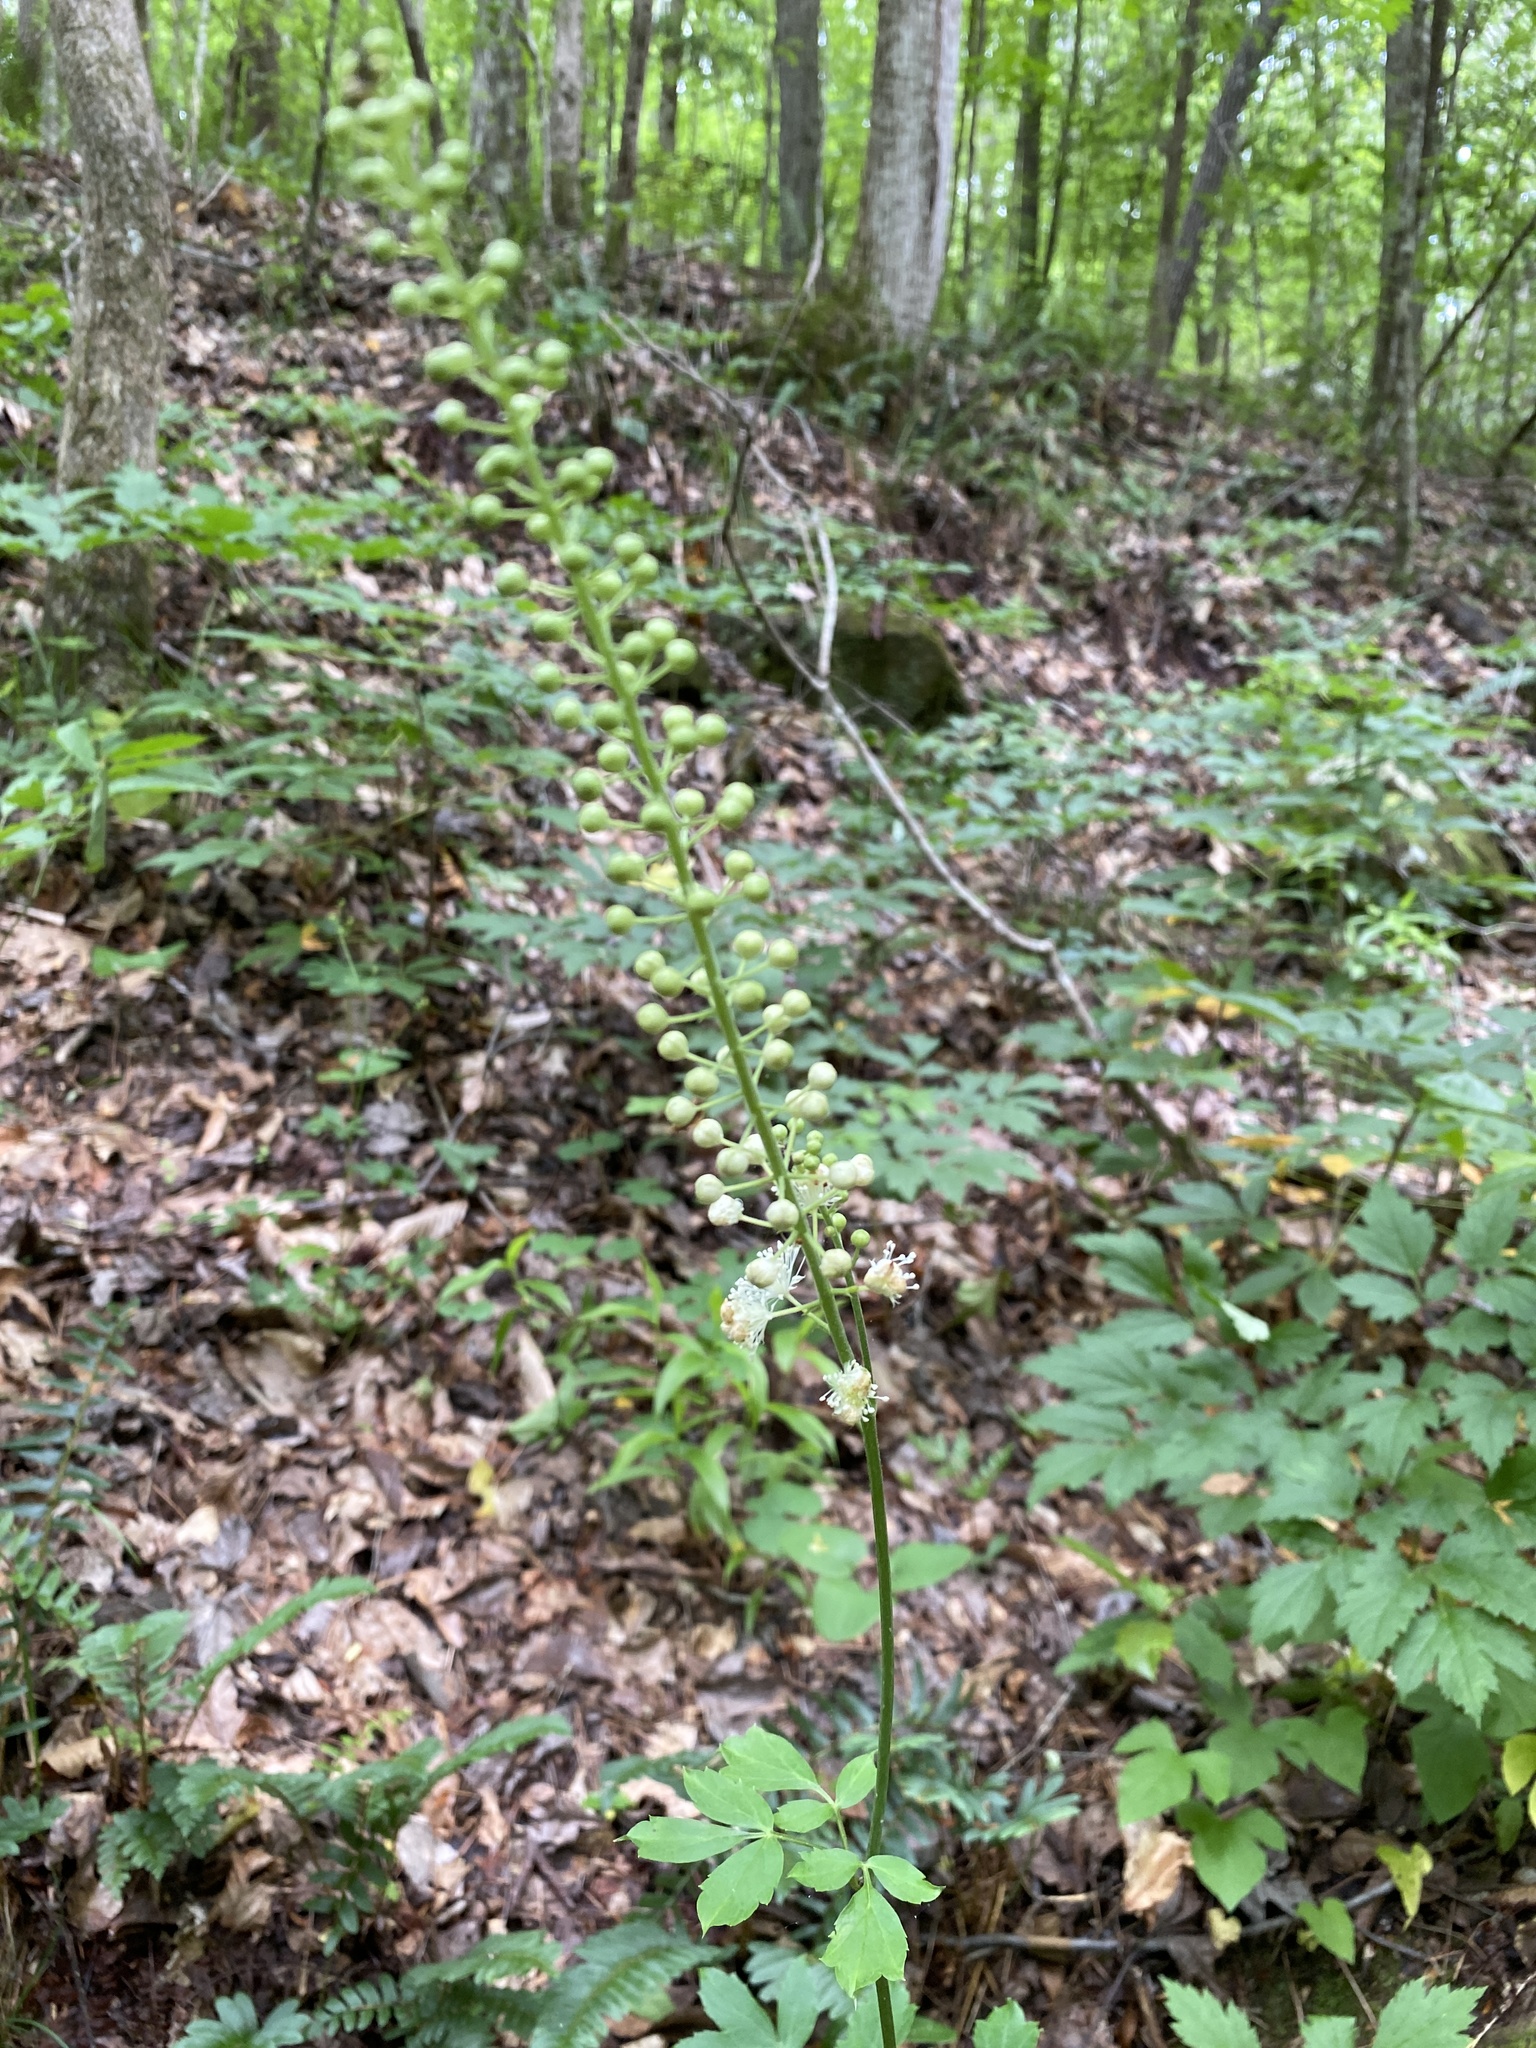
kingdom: Plantae
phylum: Tracheophyta
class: Magnoliopsida
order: Ranunculales
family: Ranunculaceae
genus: Actaea
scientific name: Actaea racemosa
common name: Black cohosh
